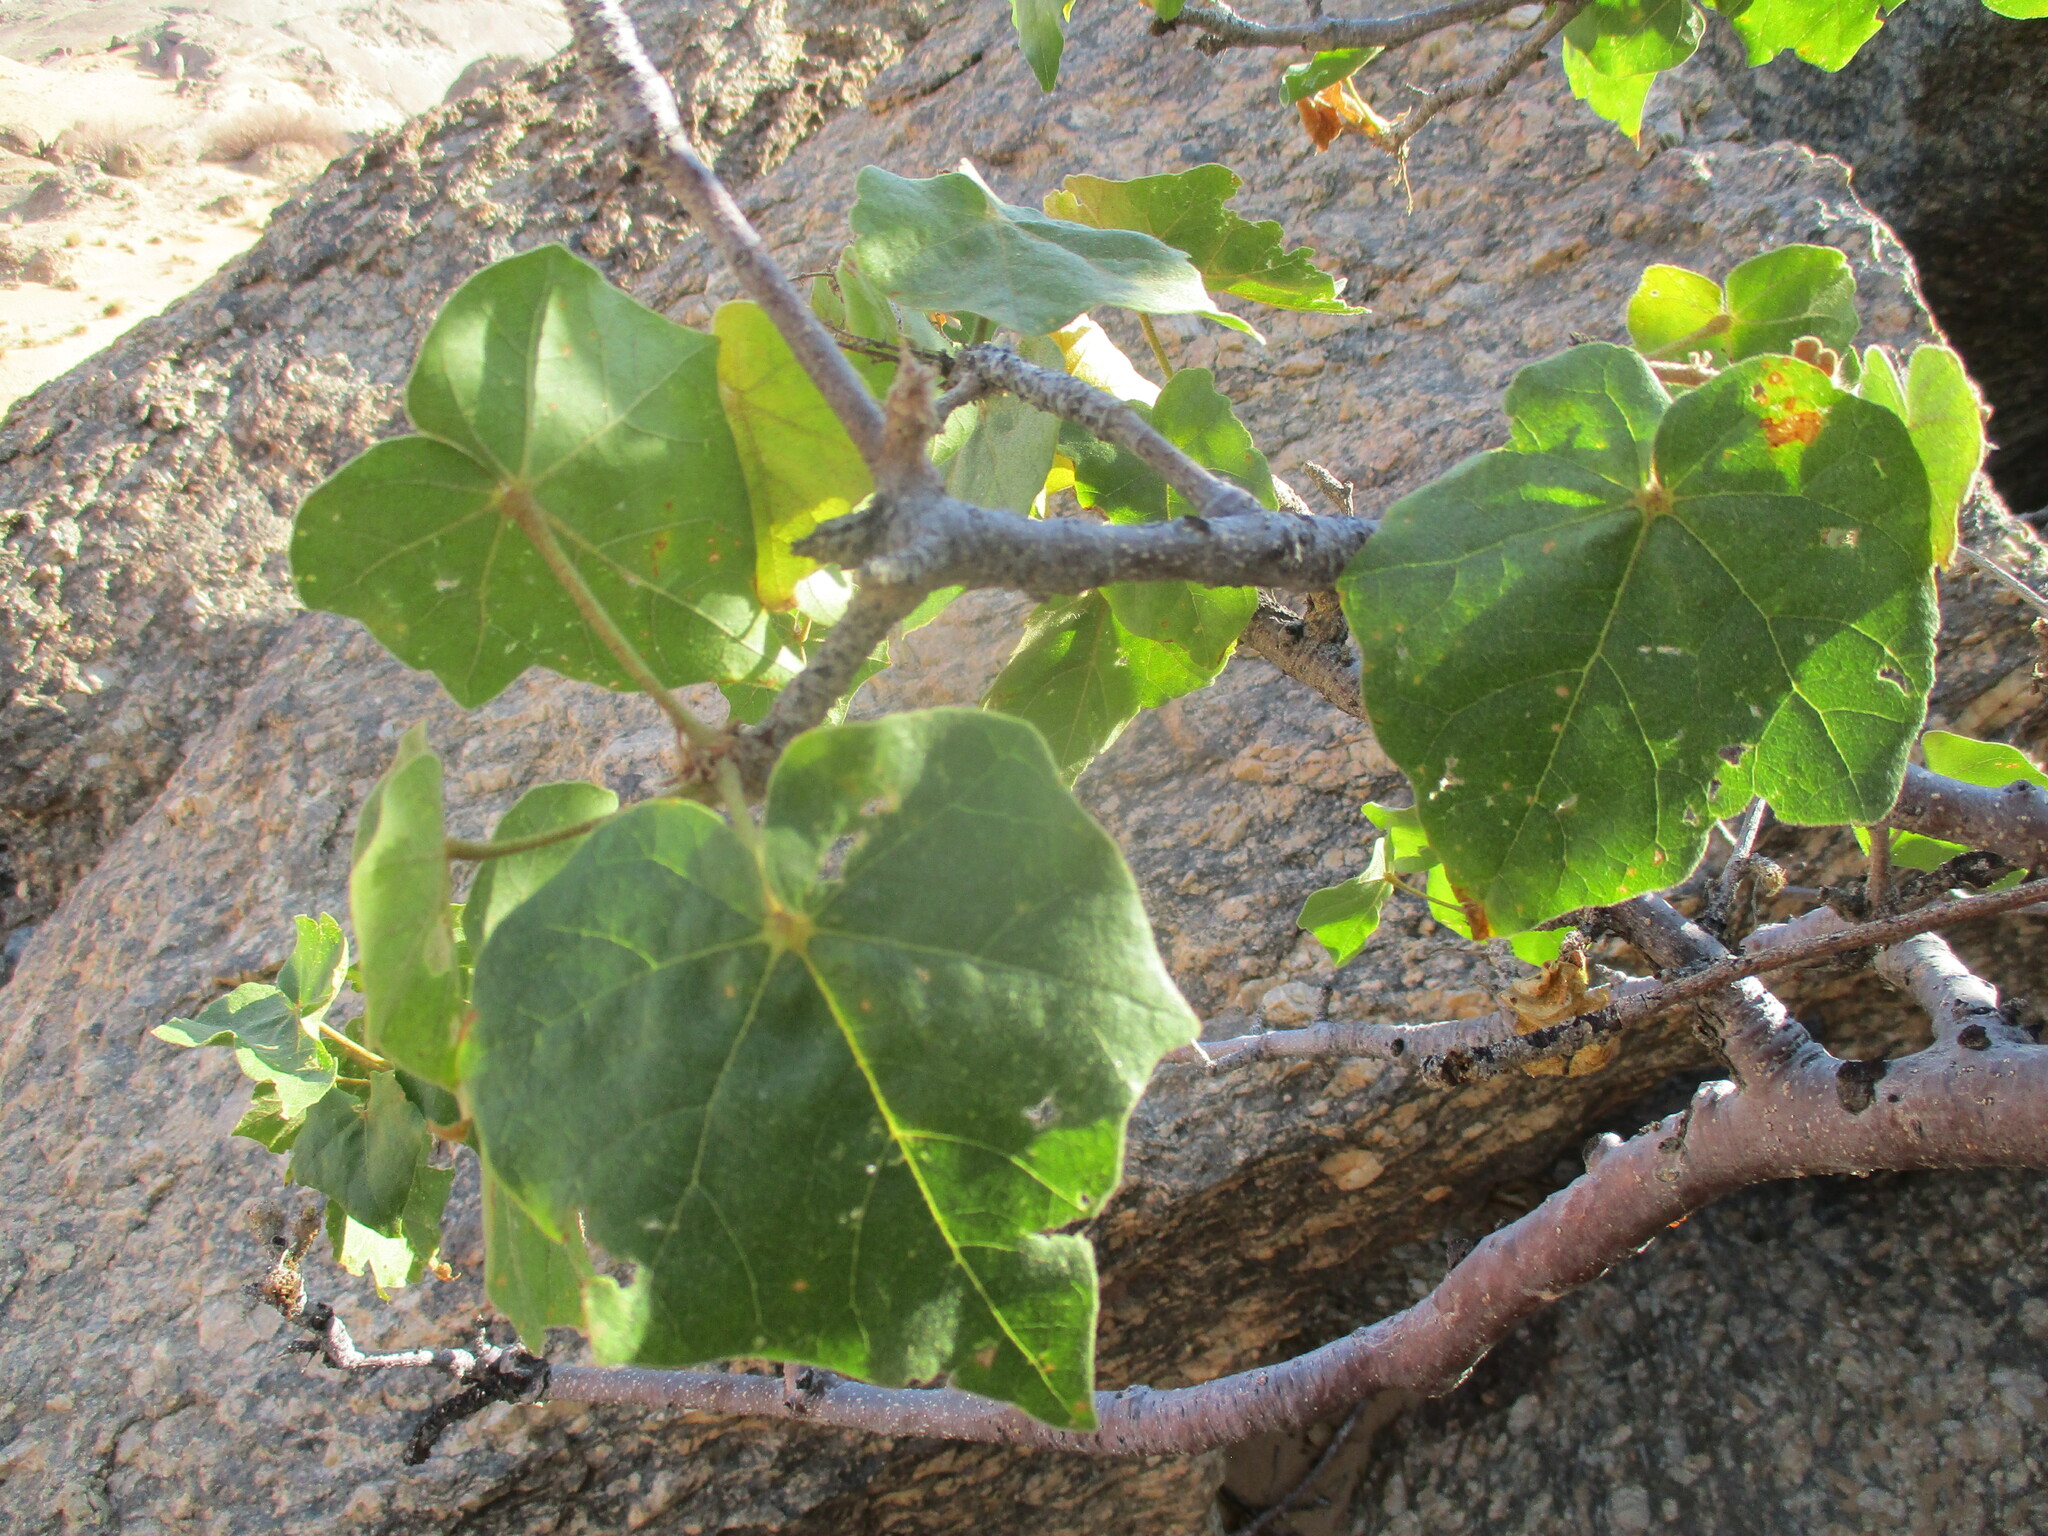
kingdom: Plantae
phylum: Tracheophyta
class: Magnoliopsida
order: Malvales
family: Malvaceae
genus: Sterculia
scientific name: Sterculia africana
